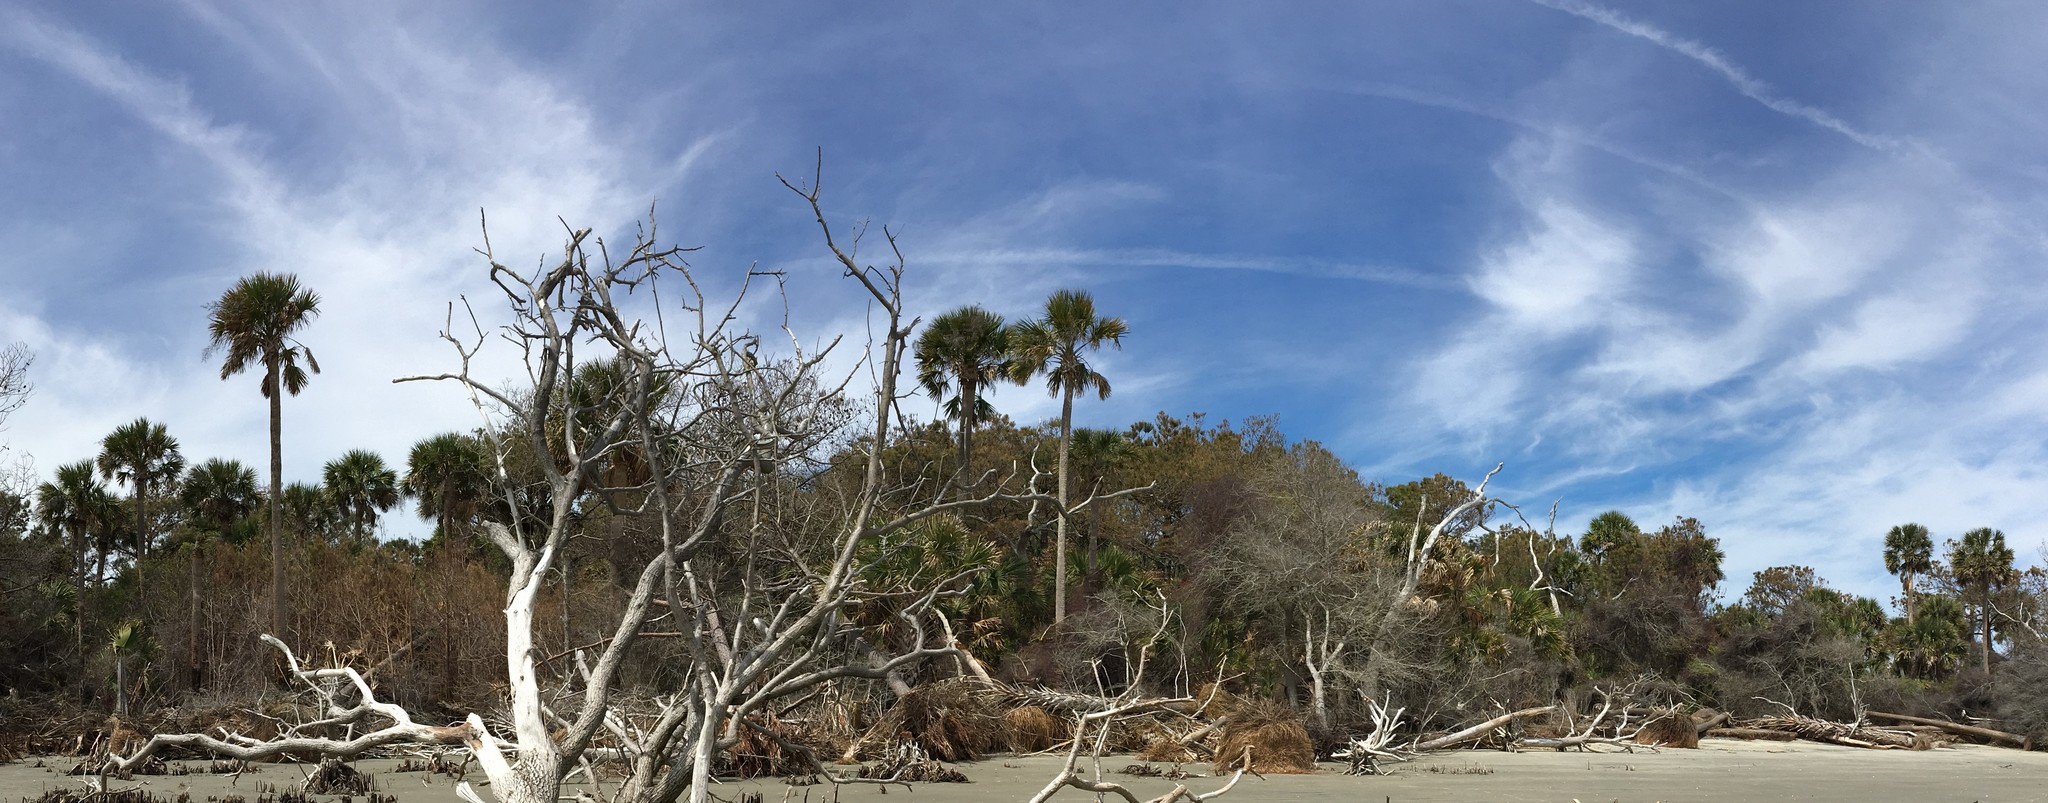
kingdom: Plantae
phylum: Tracheophyta
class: Liliopsida
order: Arecales
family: Arecaceae
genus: Sabal
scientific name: Sabal palmetto
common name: Blue palmetto
